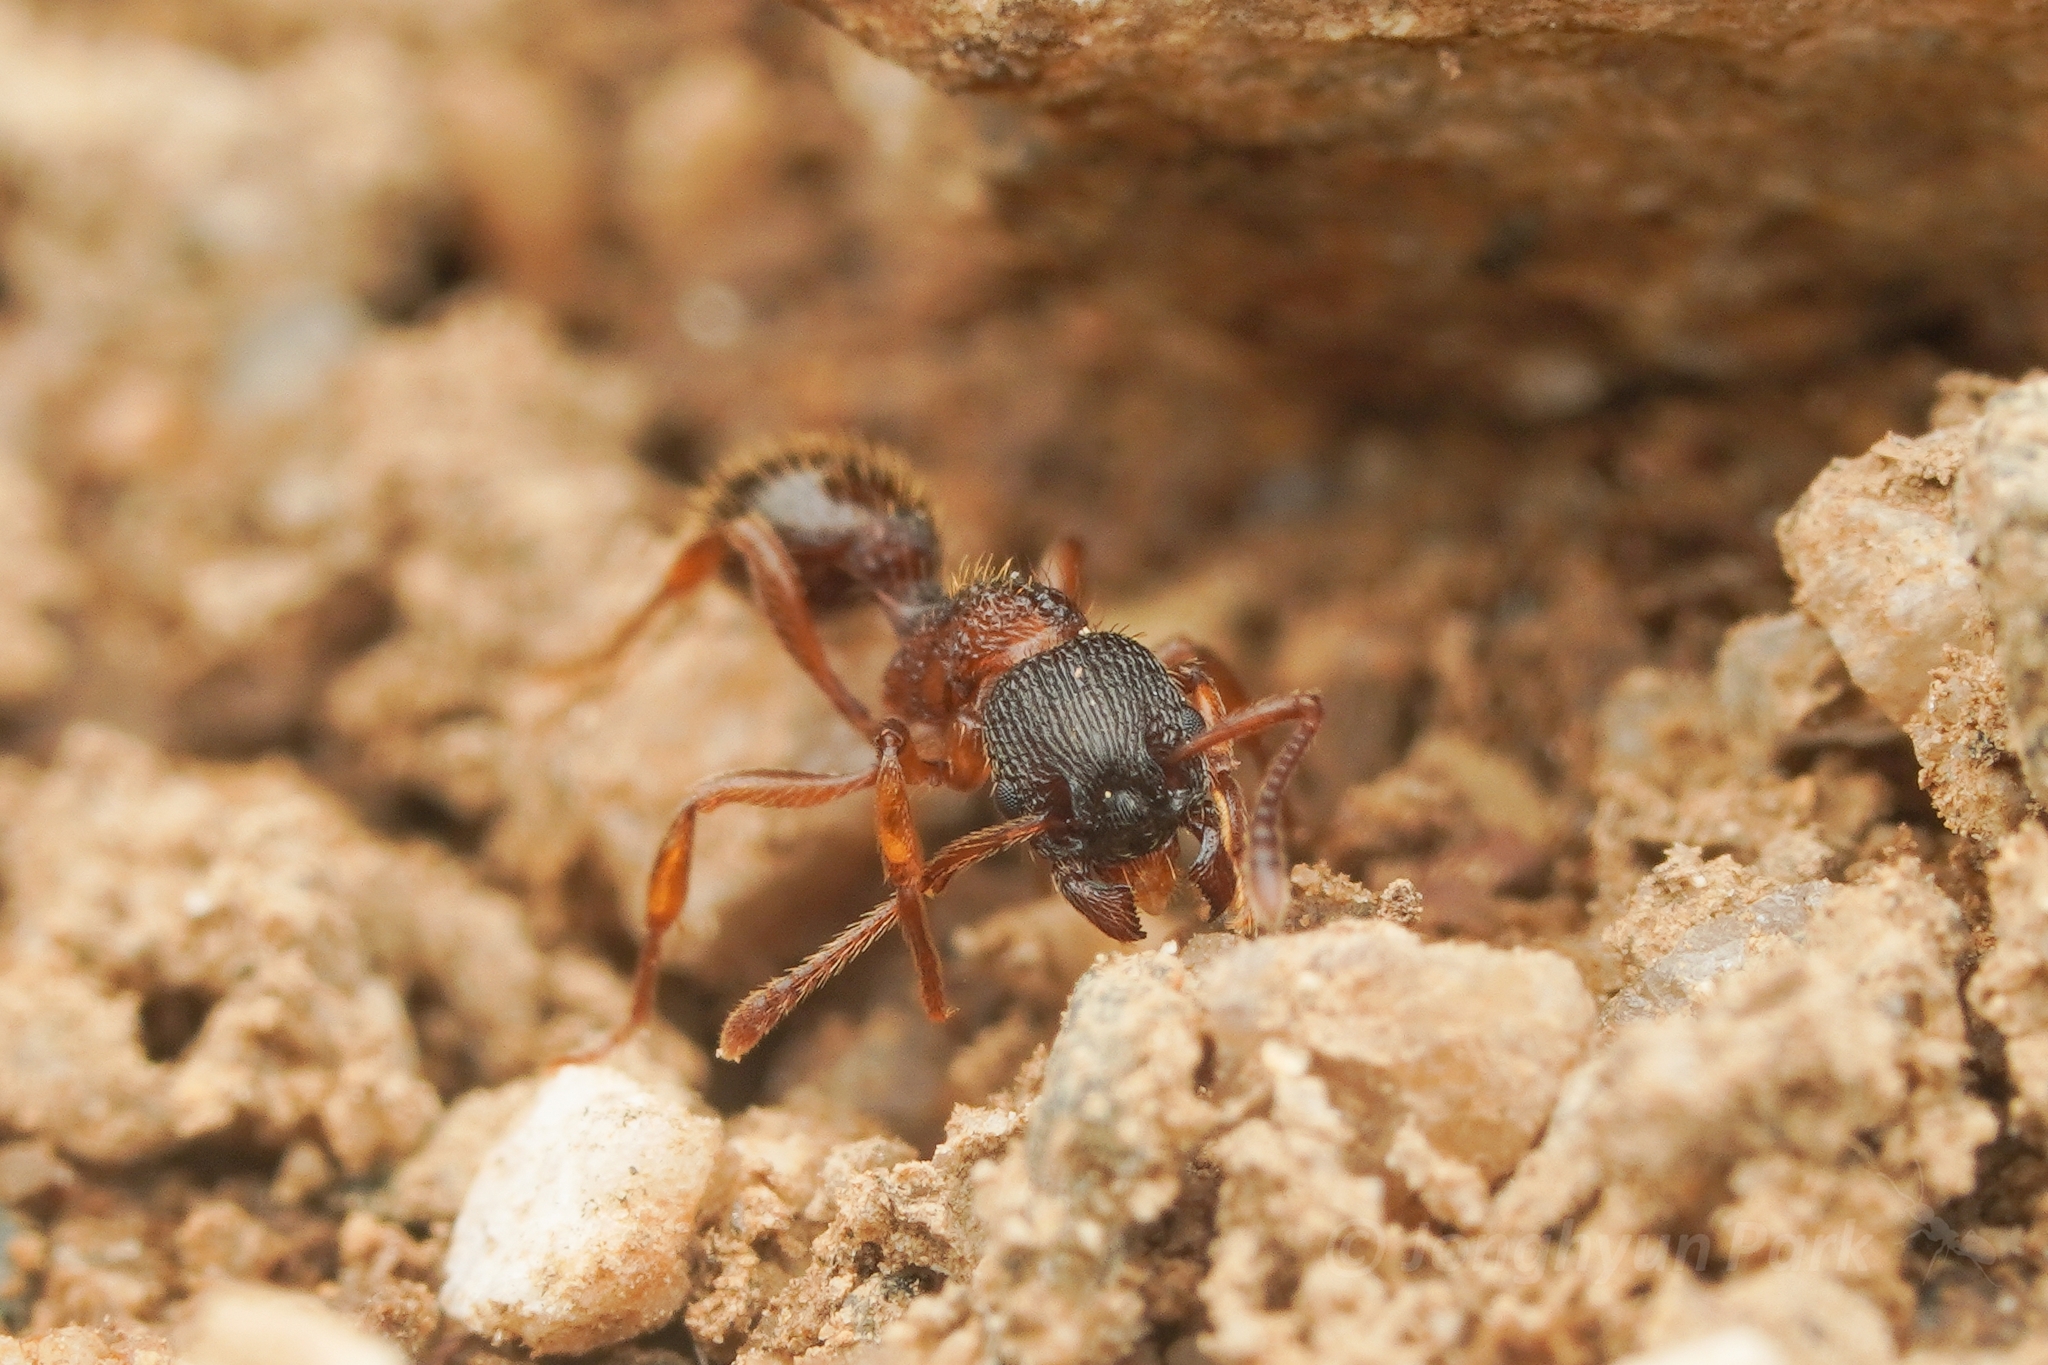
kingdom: Animalia
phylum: Arthropoda
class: Insecta
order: Hymenoptera
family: Formicidae
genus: Myrmica
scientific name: Myrmica ademonia
